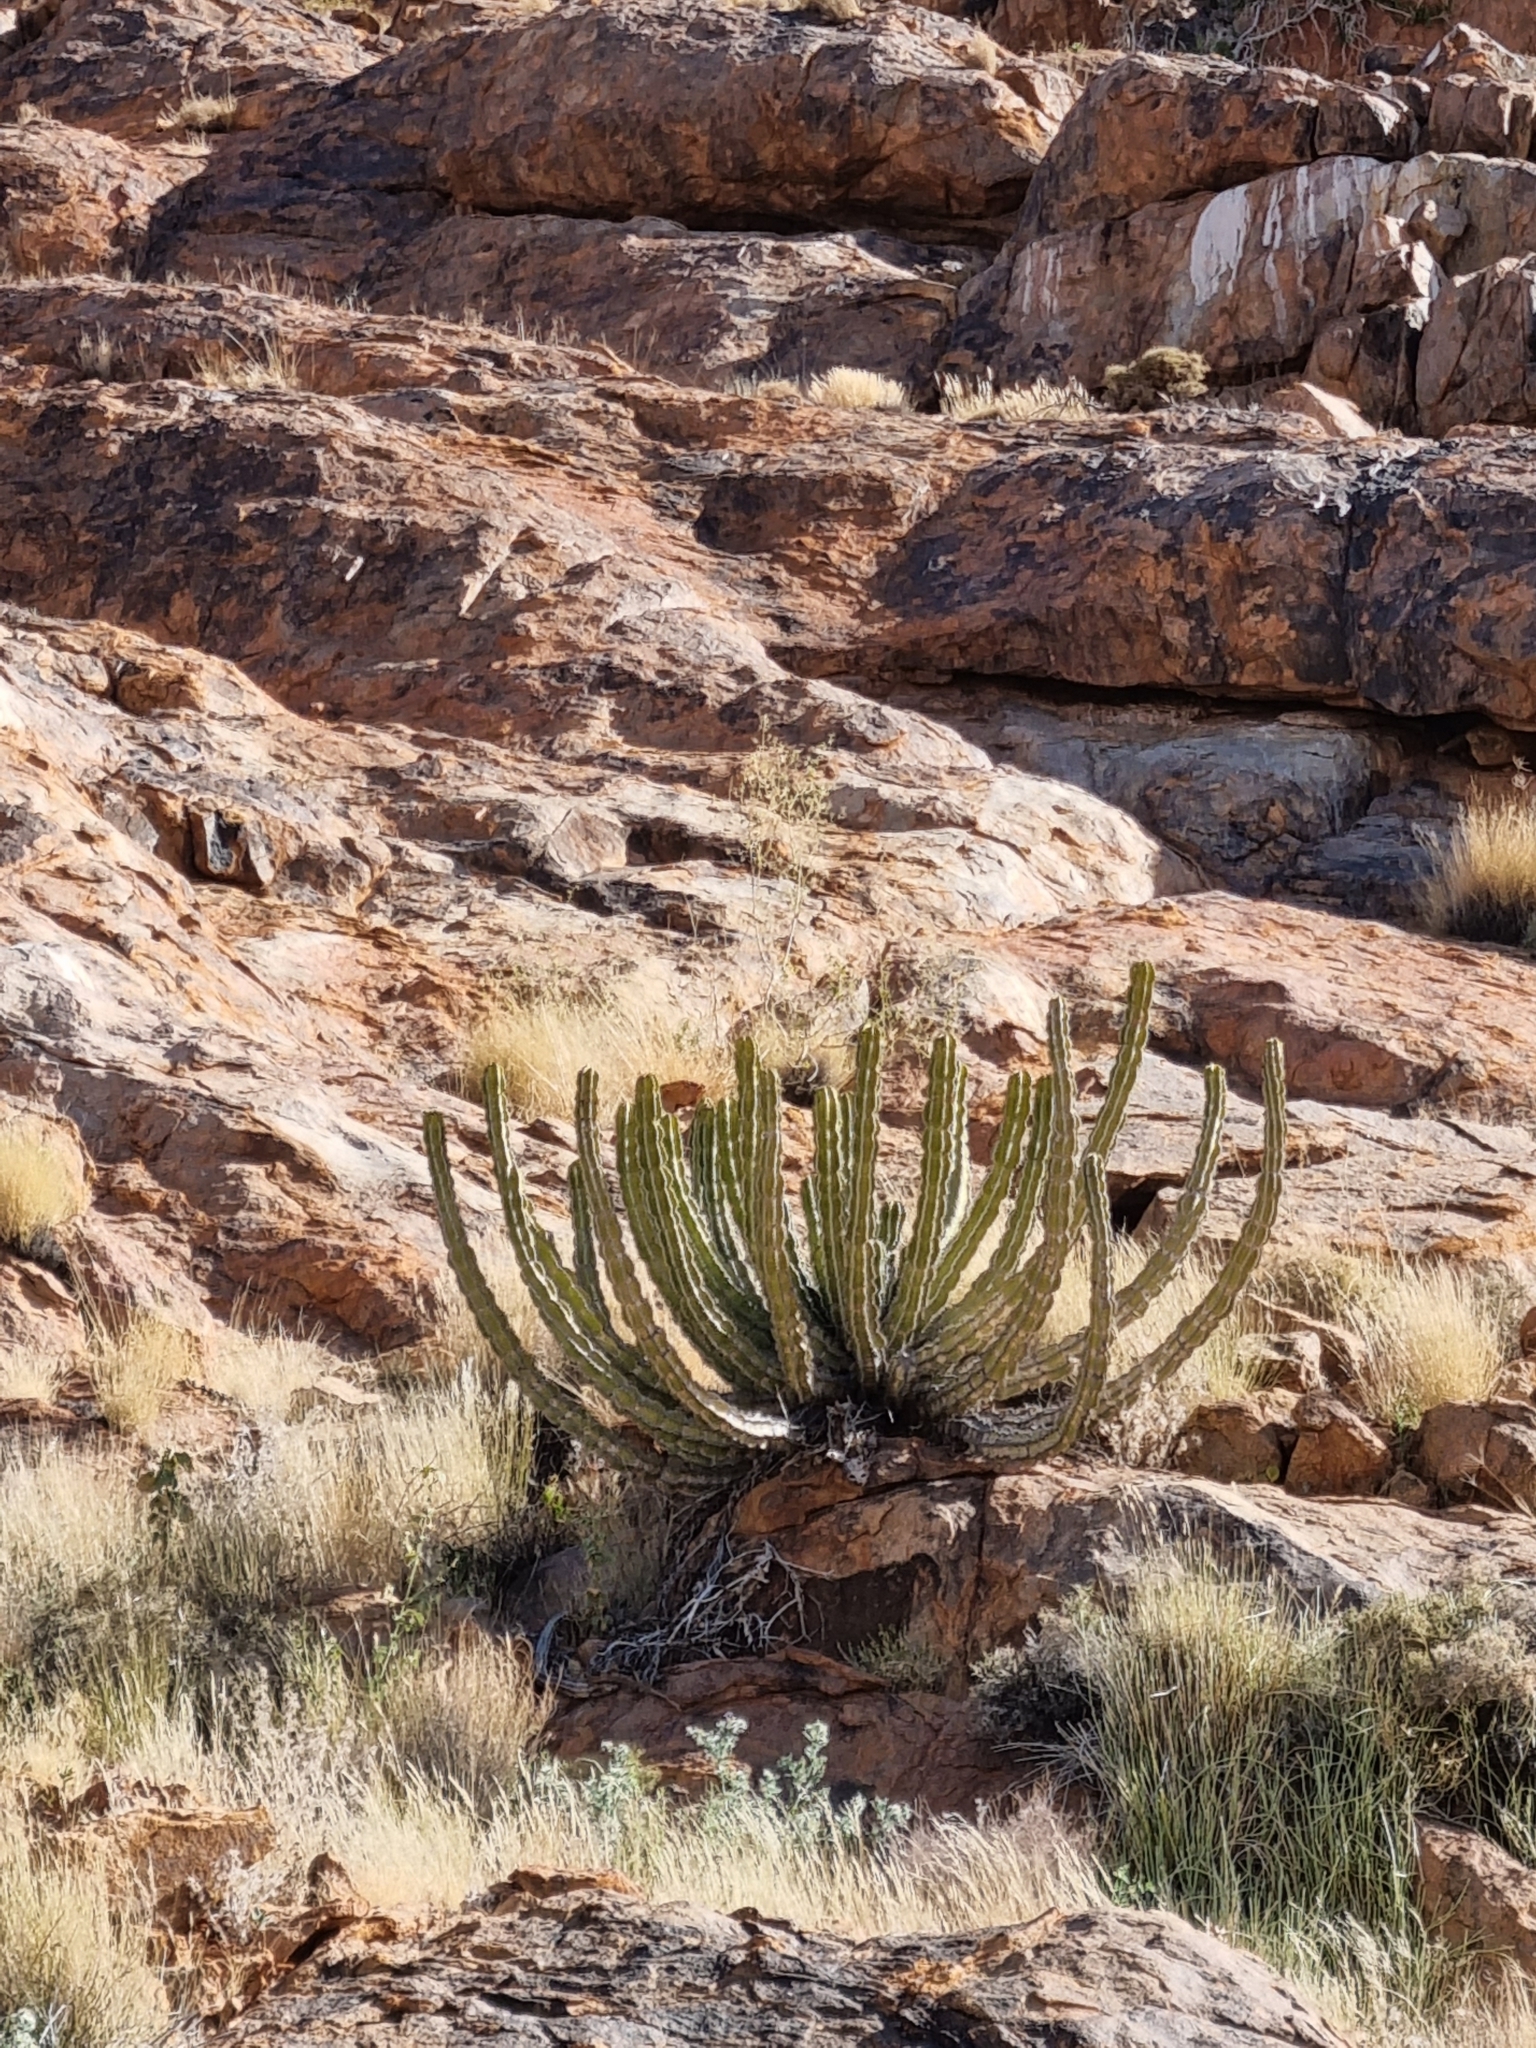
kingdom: Plantae
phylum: Tracheophyta
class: Magnoliopsida
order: Malpighiales
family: Euphorbiaceae
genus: Euphorbia
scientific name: Euphorbia avasmontana
